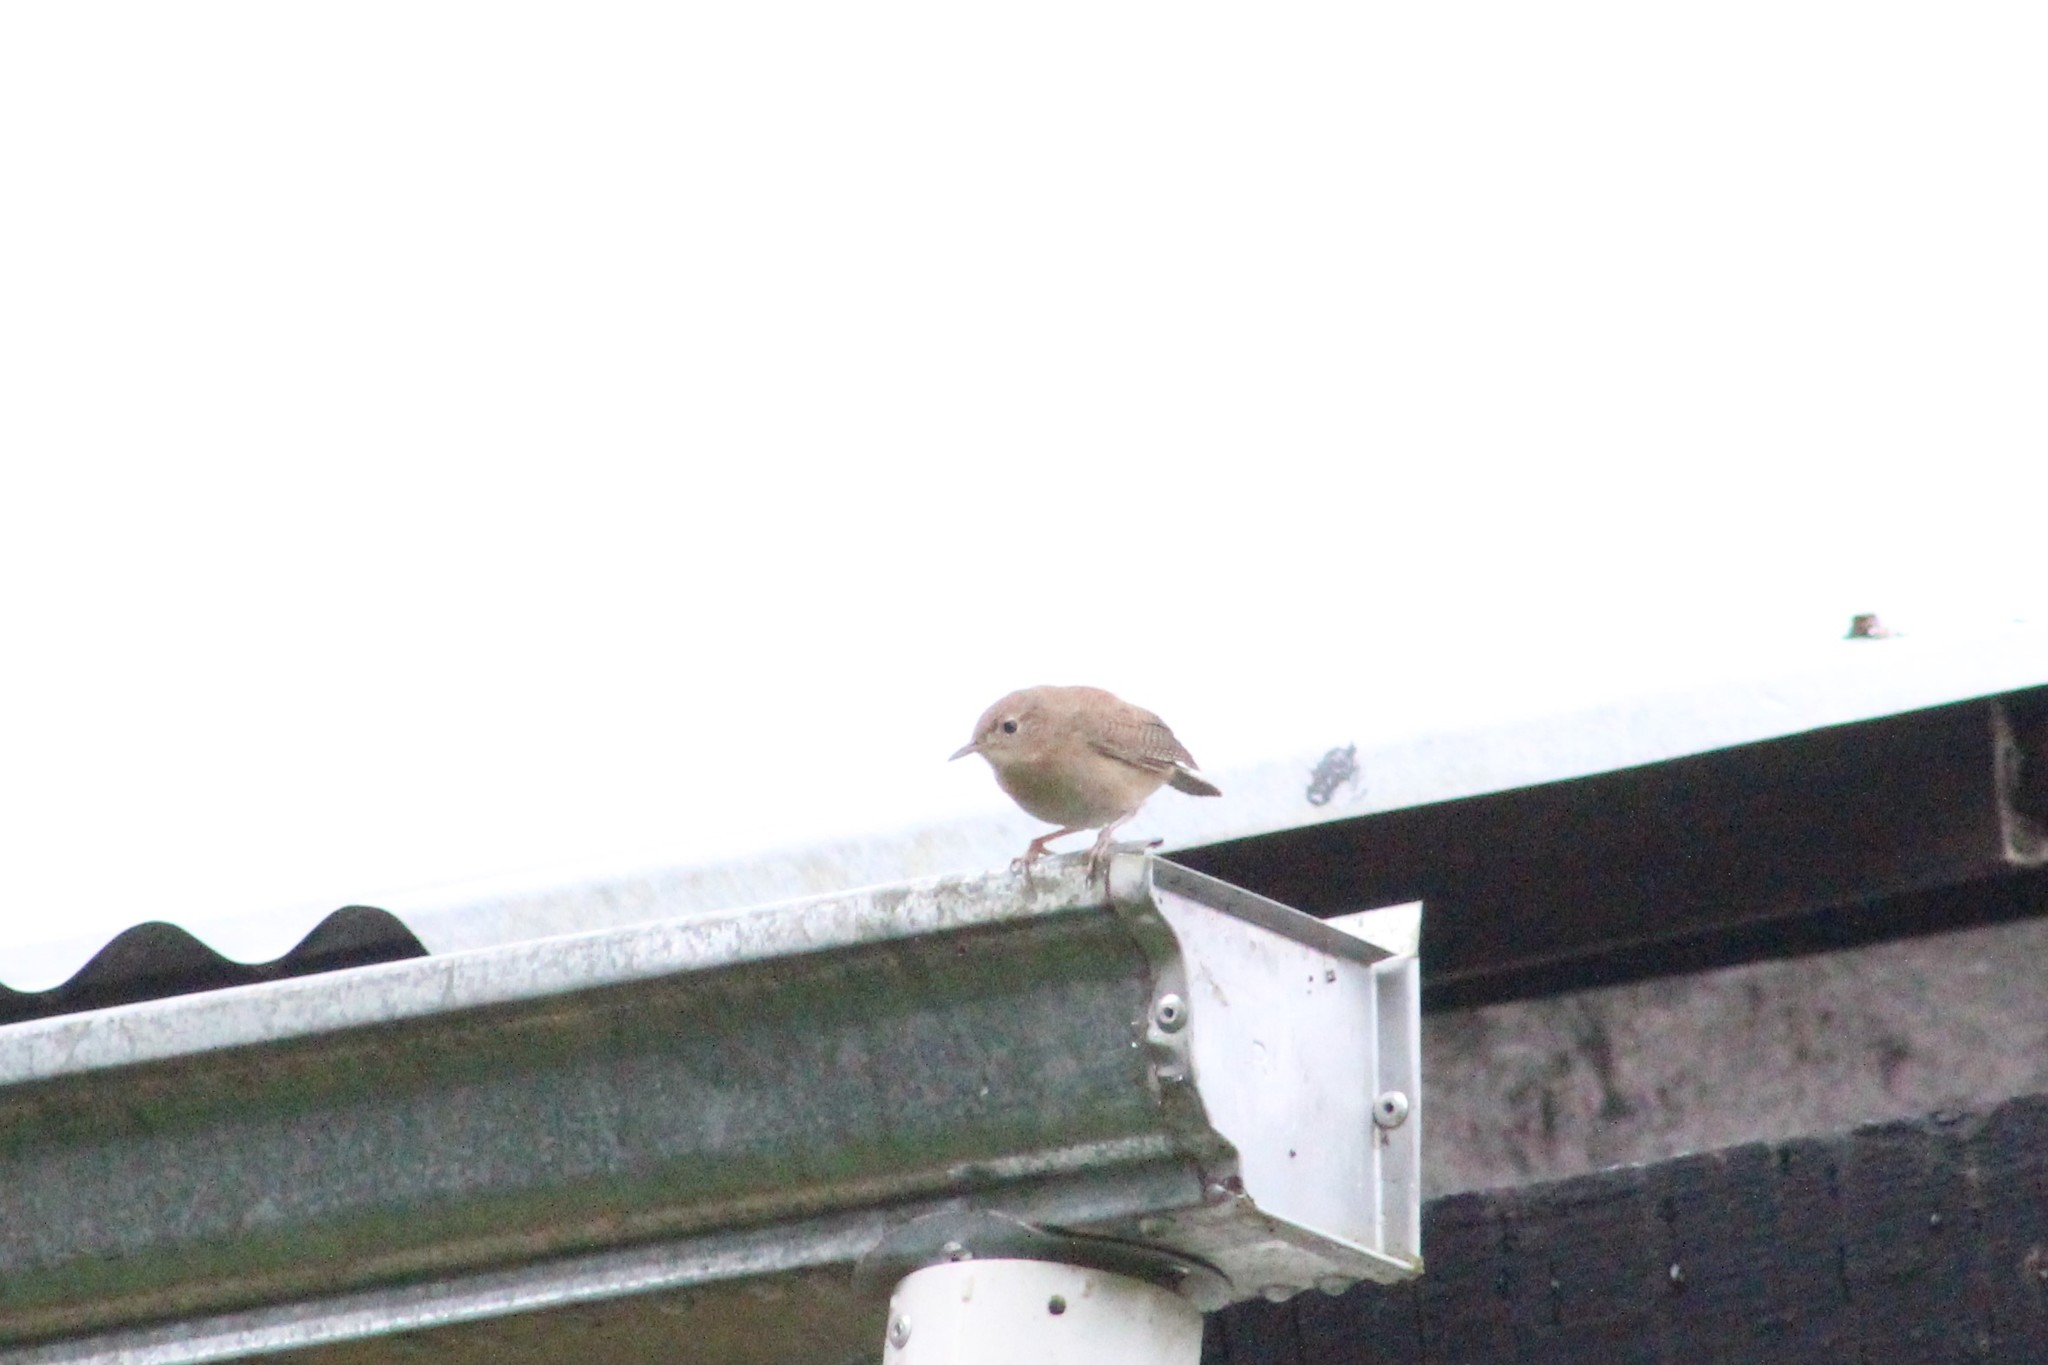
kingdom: Animalia
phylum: Chordata
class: Aves
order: Passeriformes
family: Troglodytidae
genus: Troglodytes
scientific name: Troglodytes aedon
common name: House wren
